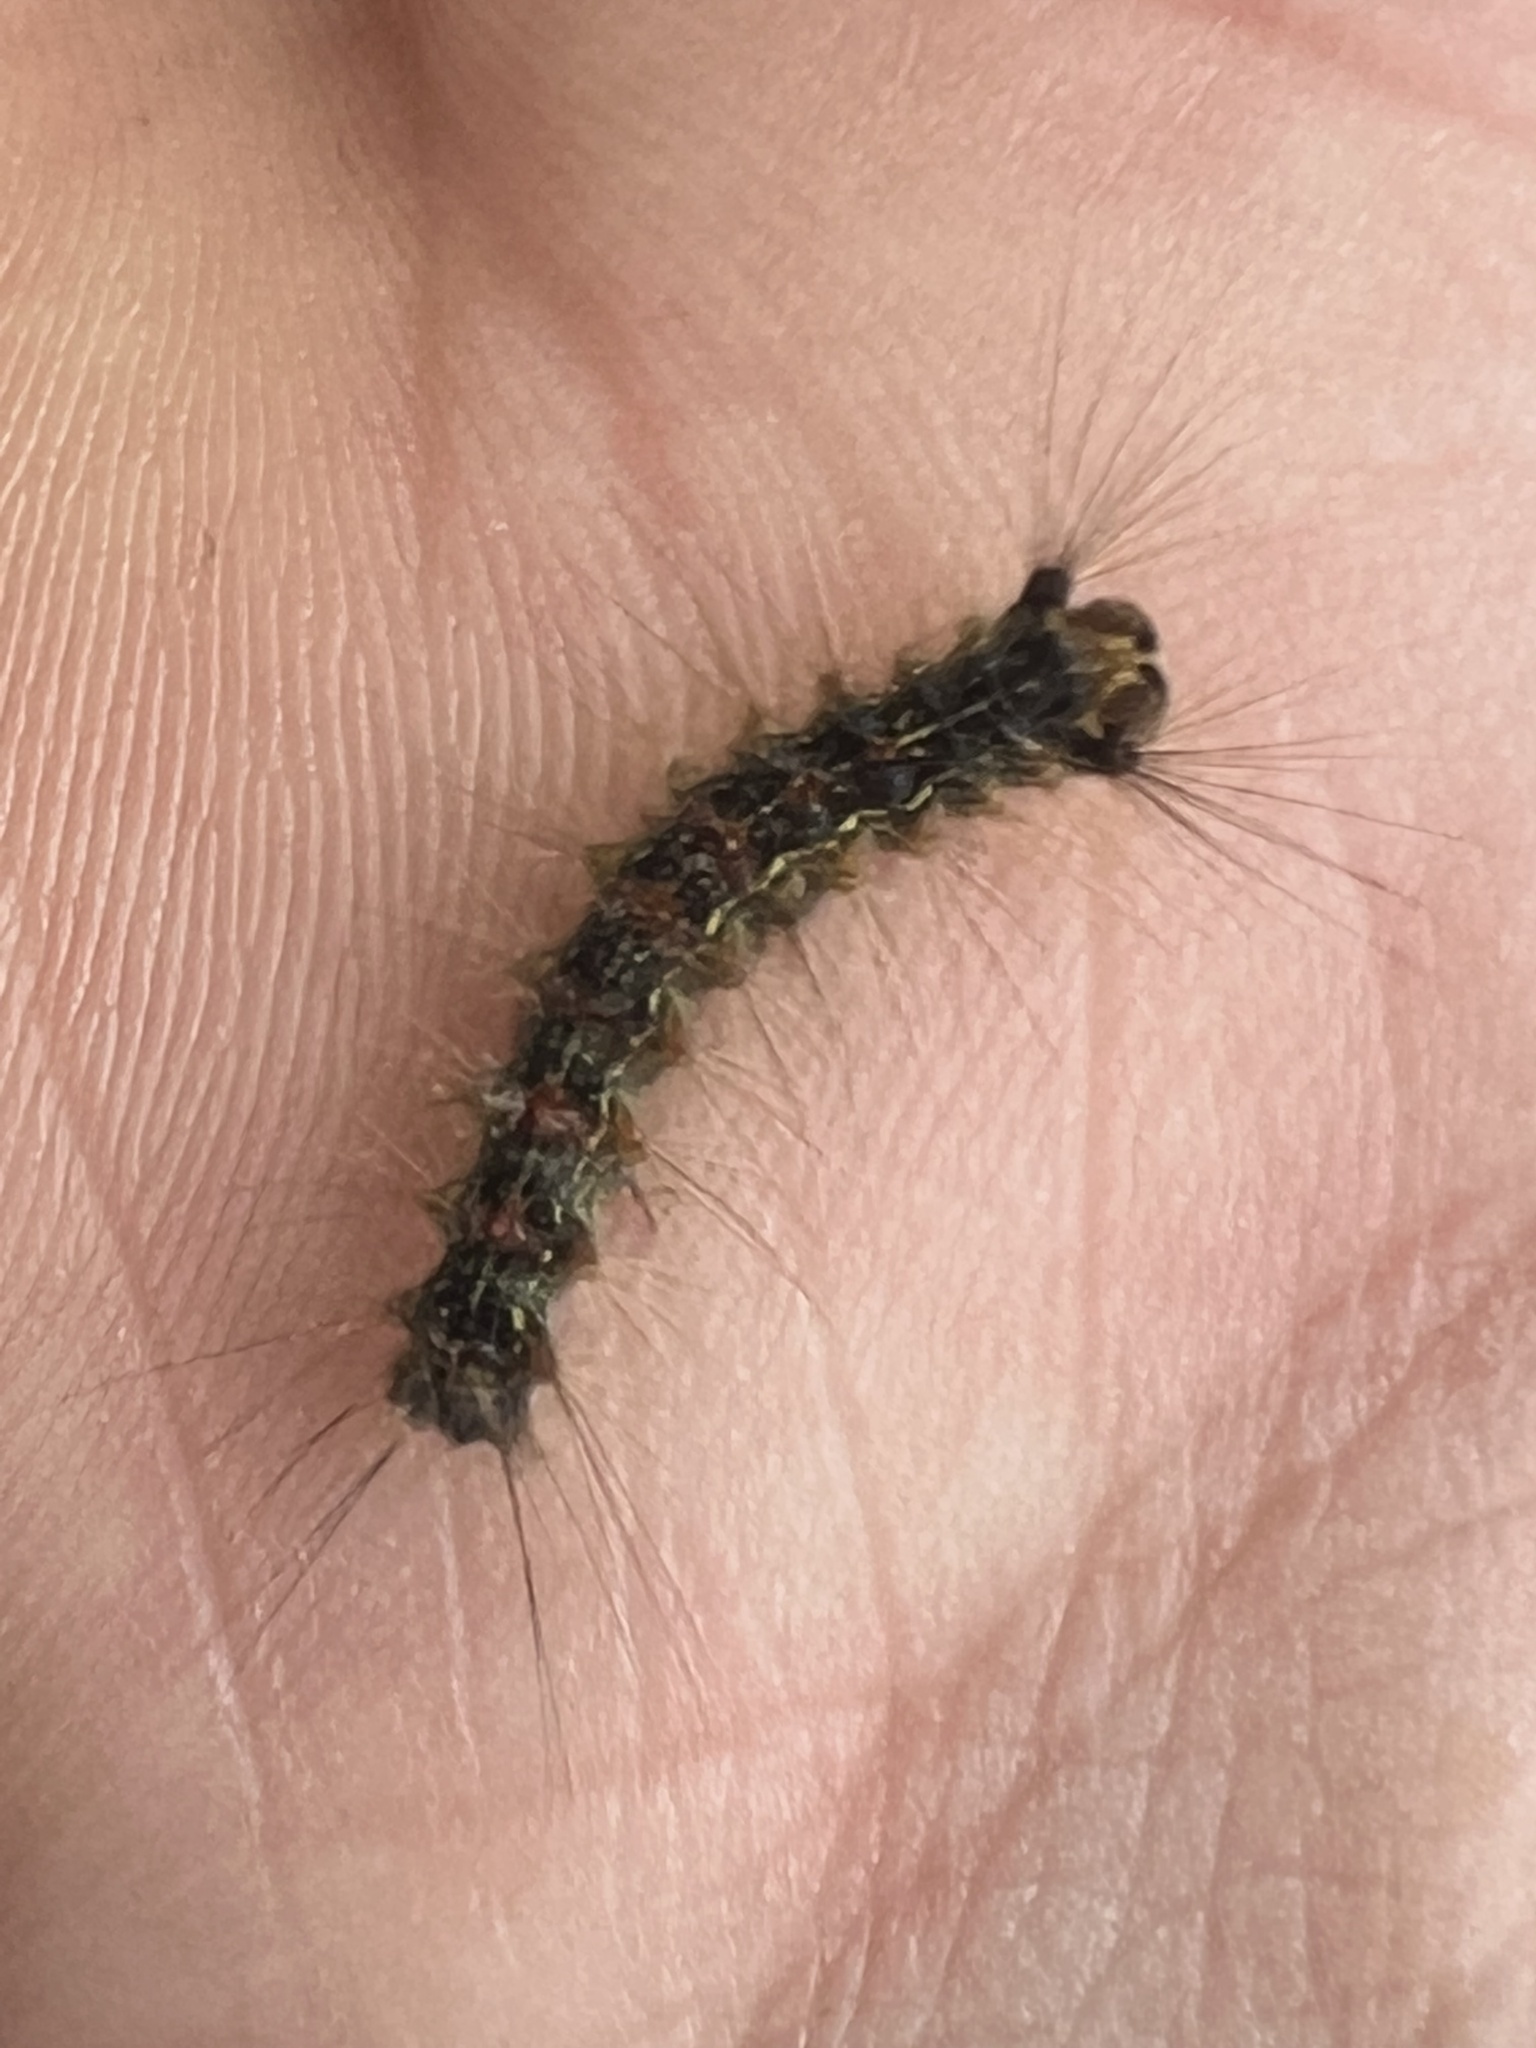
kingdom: Animalia
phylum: Arthropoda
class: Insecta
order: Lepidoptera
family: Erebidae
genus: Lymantria
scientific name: Lymantria dispar
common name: Gypsy moth
